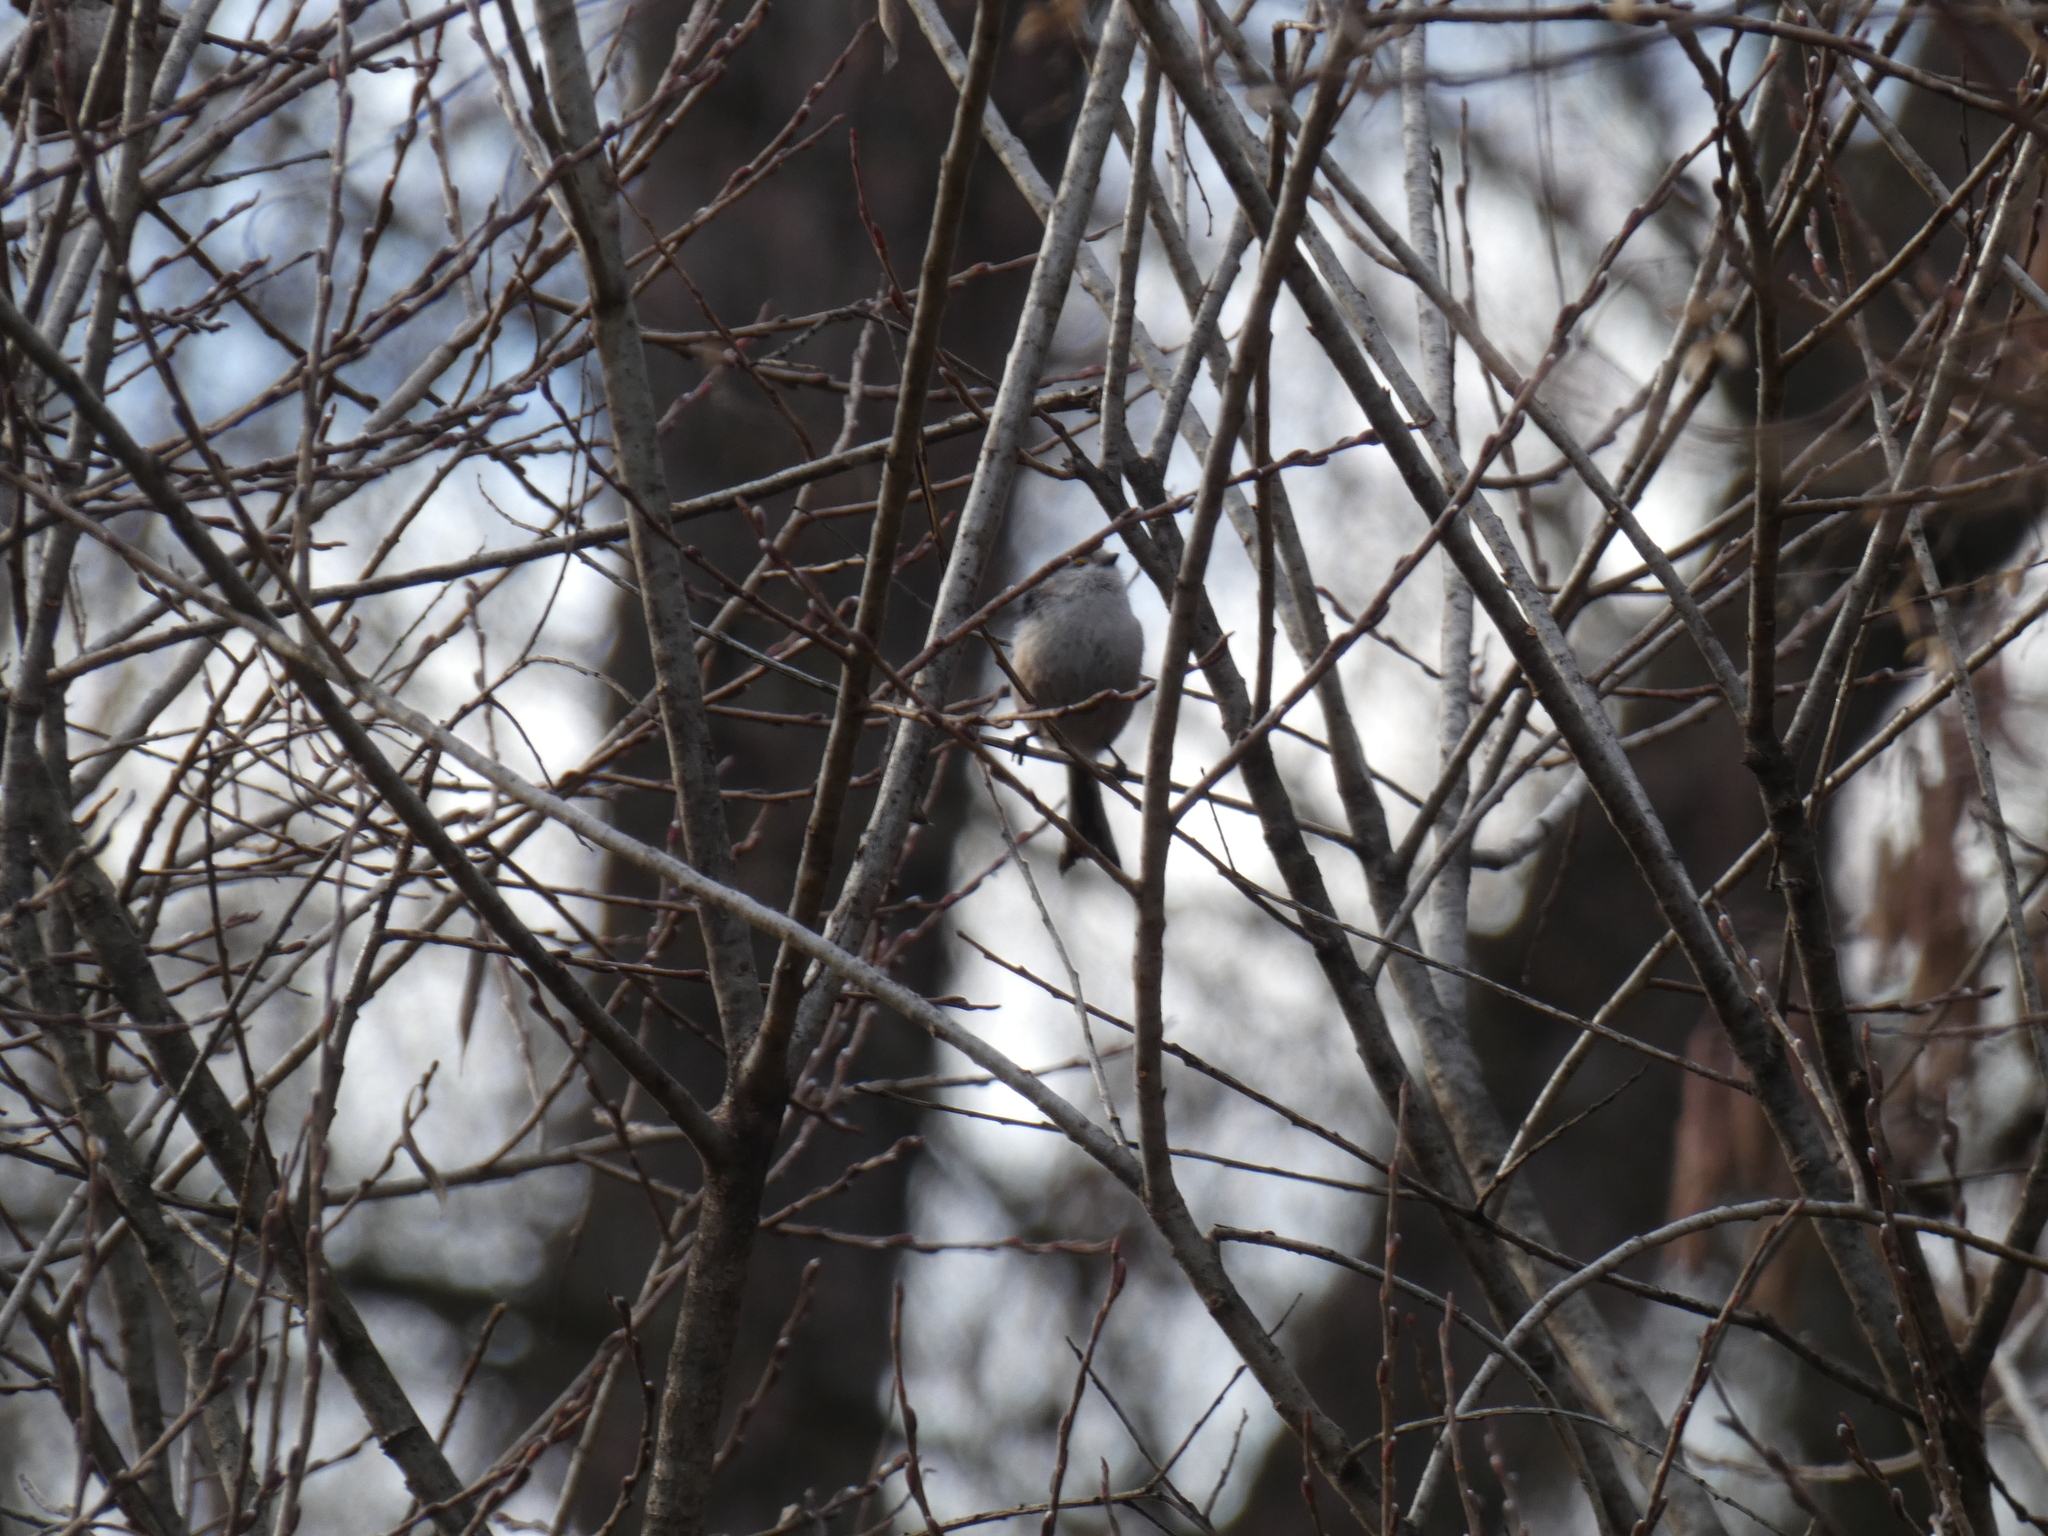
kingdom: Animalia
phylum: Chordata
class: Aves
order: Passeriformes
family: Aegithalidae
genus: Aegithalos
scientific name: Aegithalos caudatus
